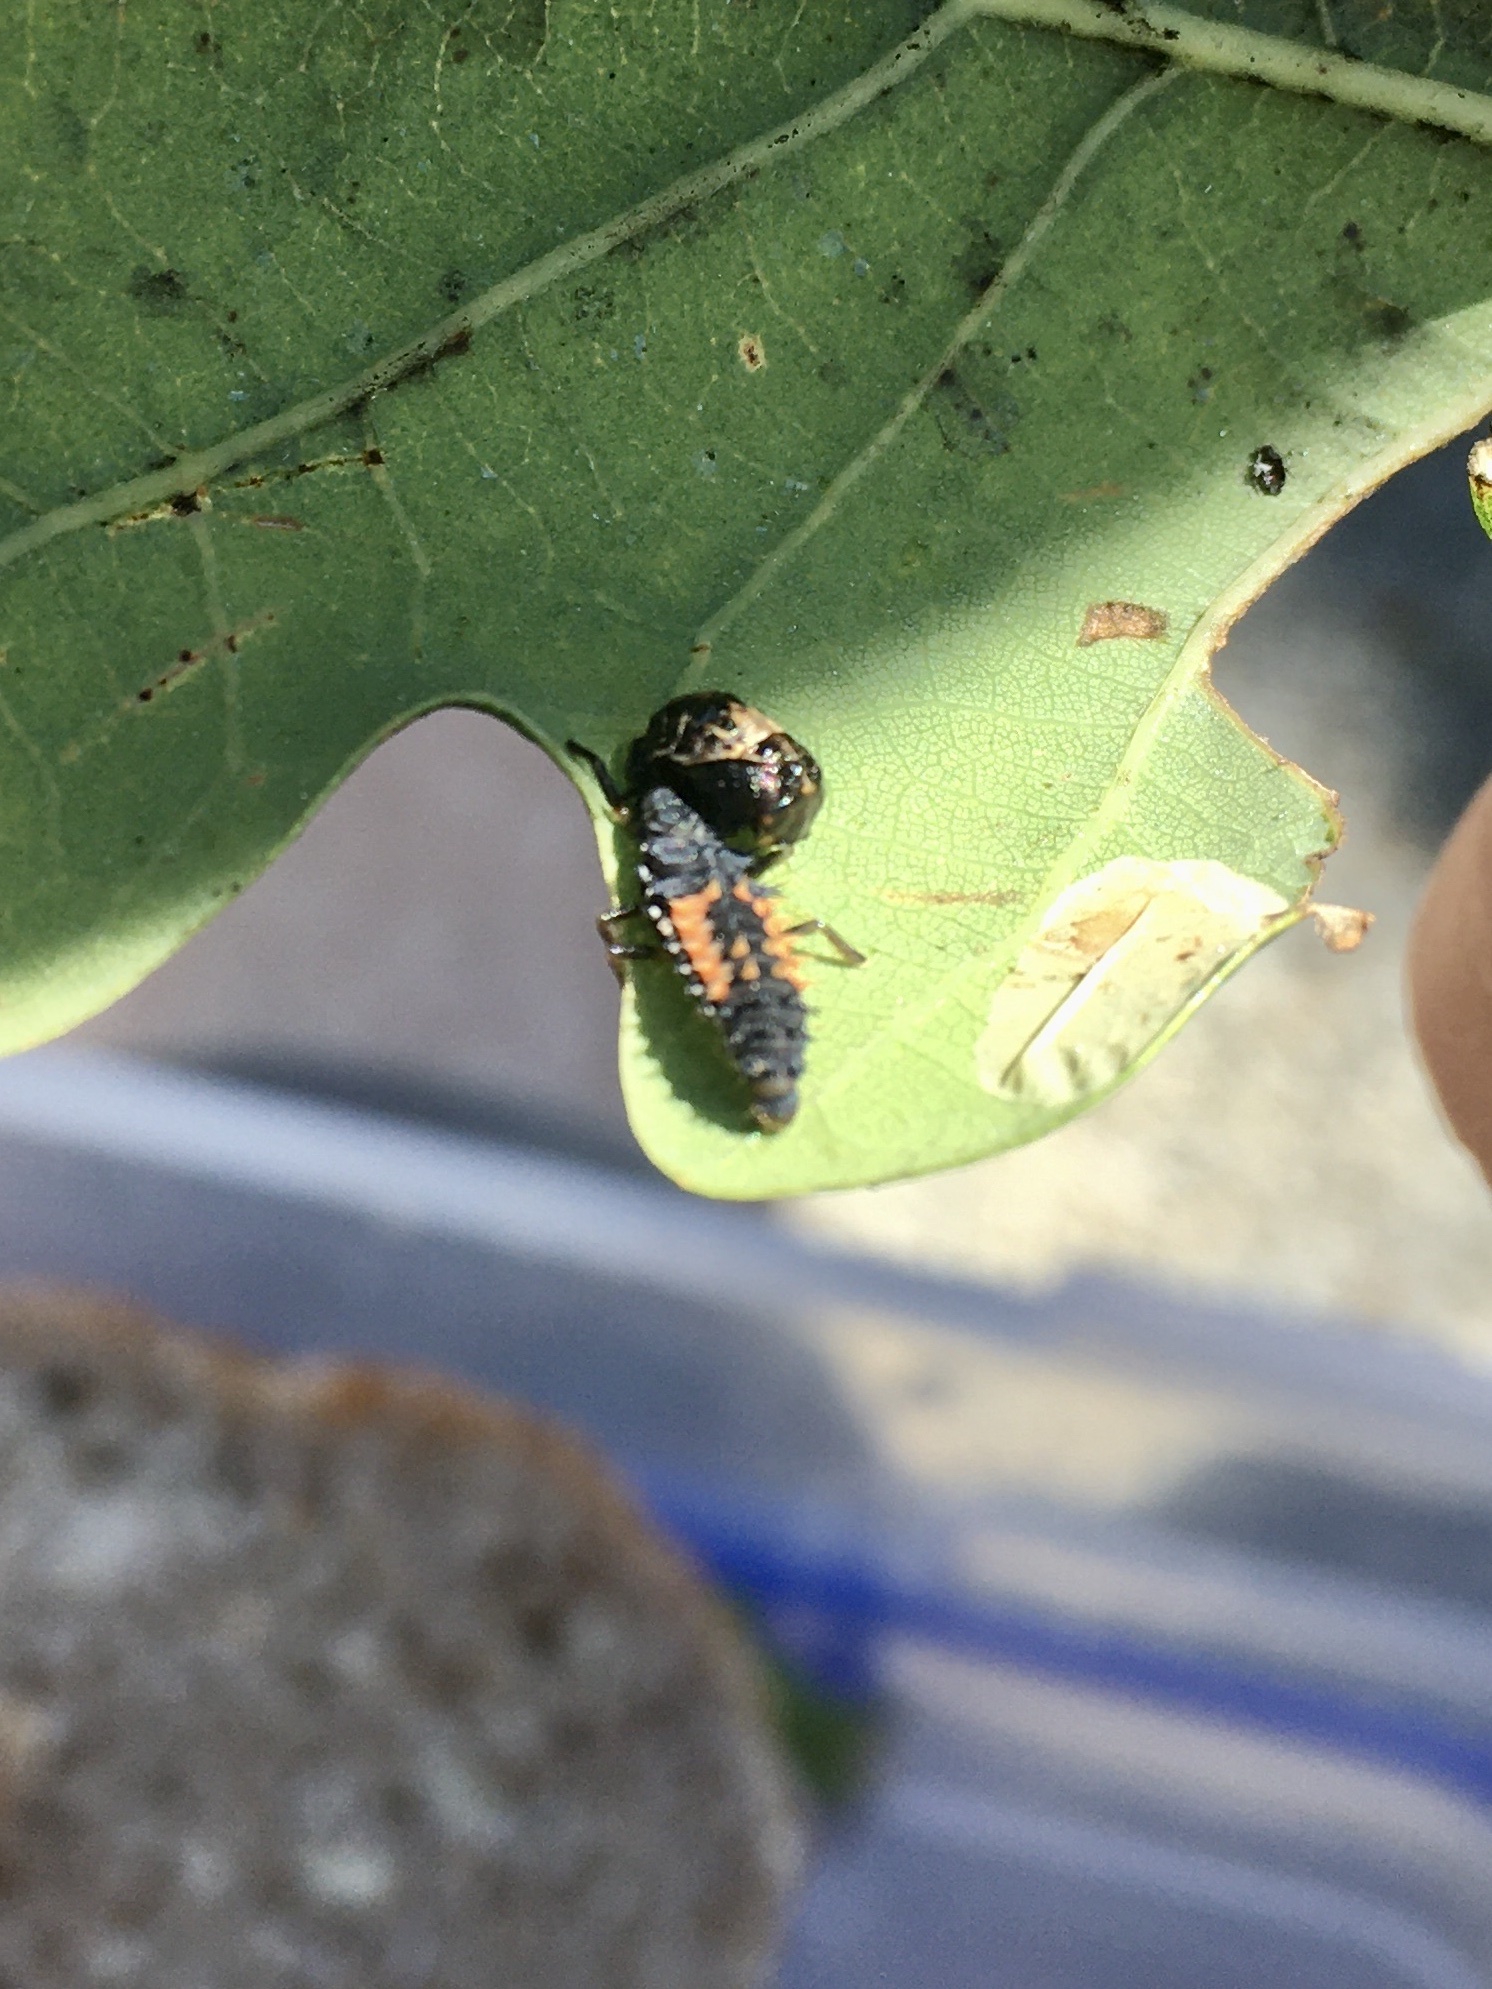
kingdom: Animalia
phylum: Arthropoda
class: Insecta
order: Coleoptera
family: Coccinellidae
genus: Harmonia
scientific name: Harmonia axyridis
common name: Harlequin ladybird
